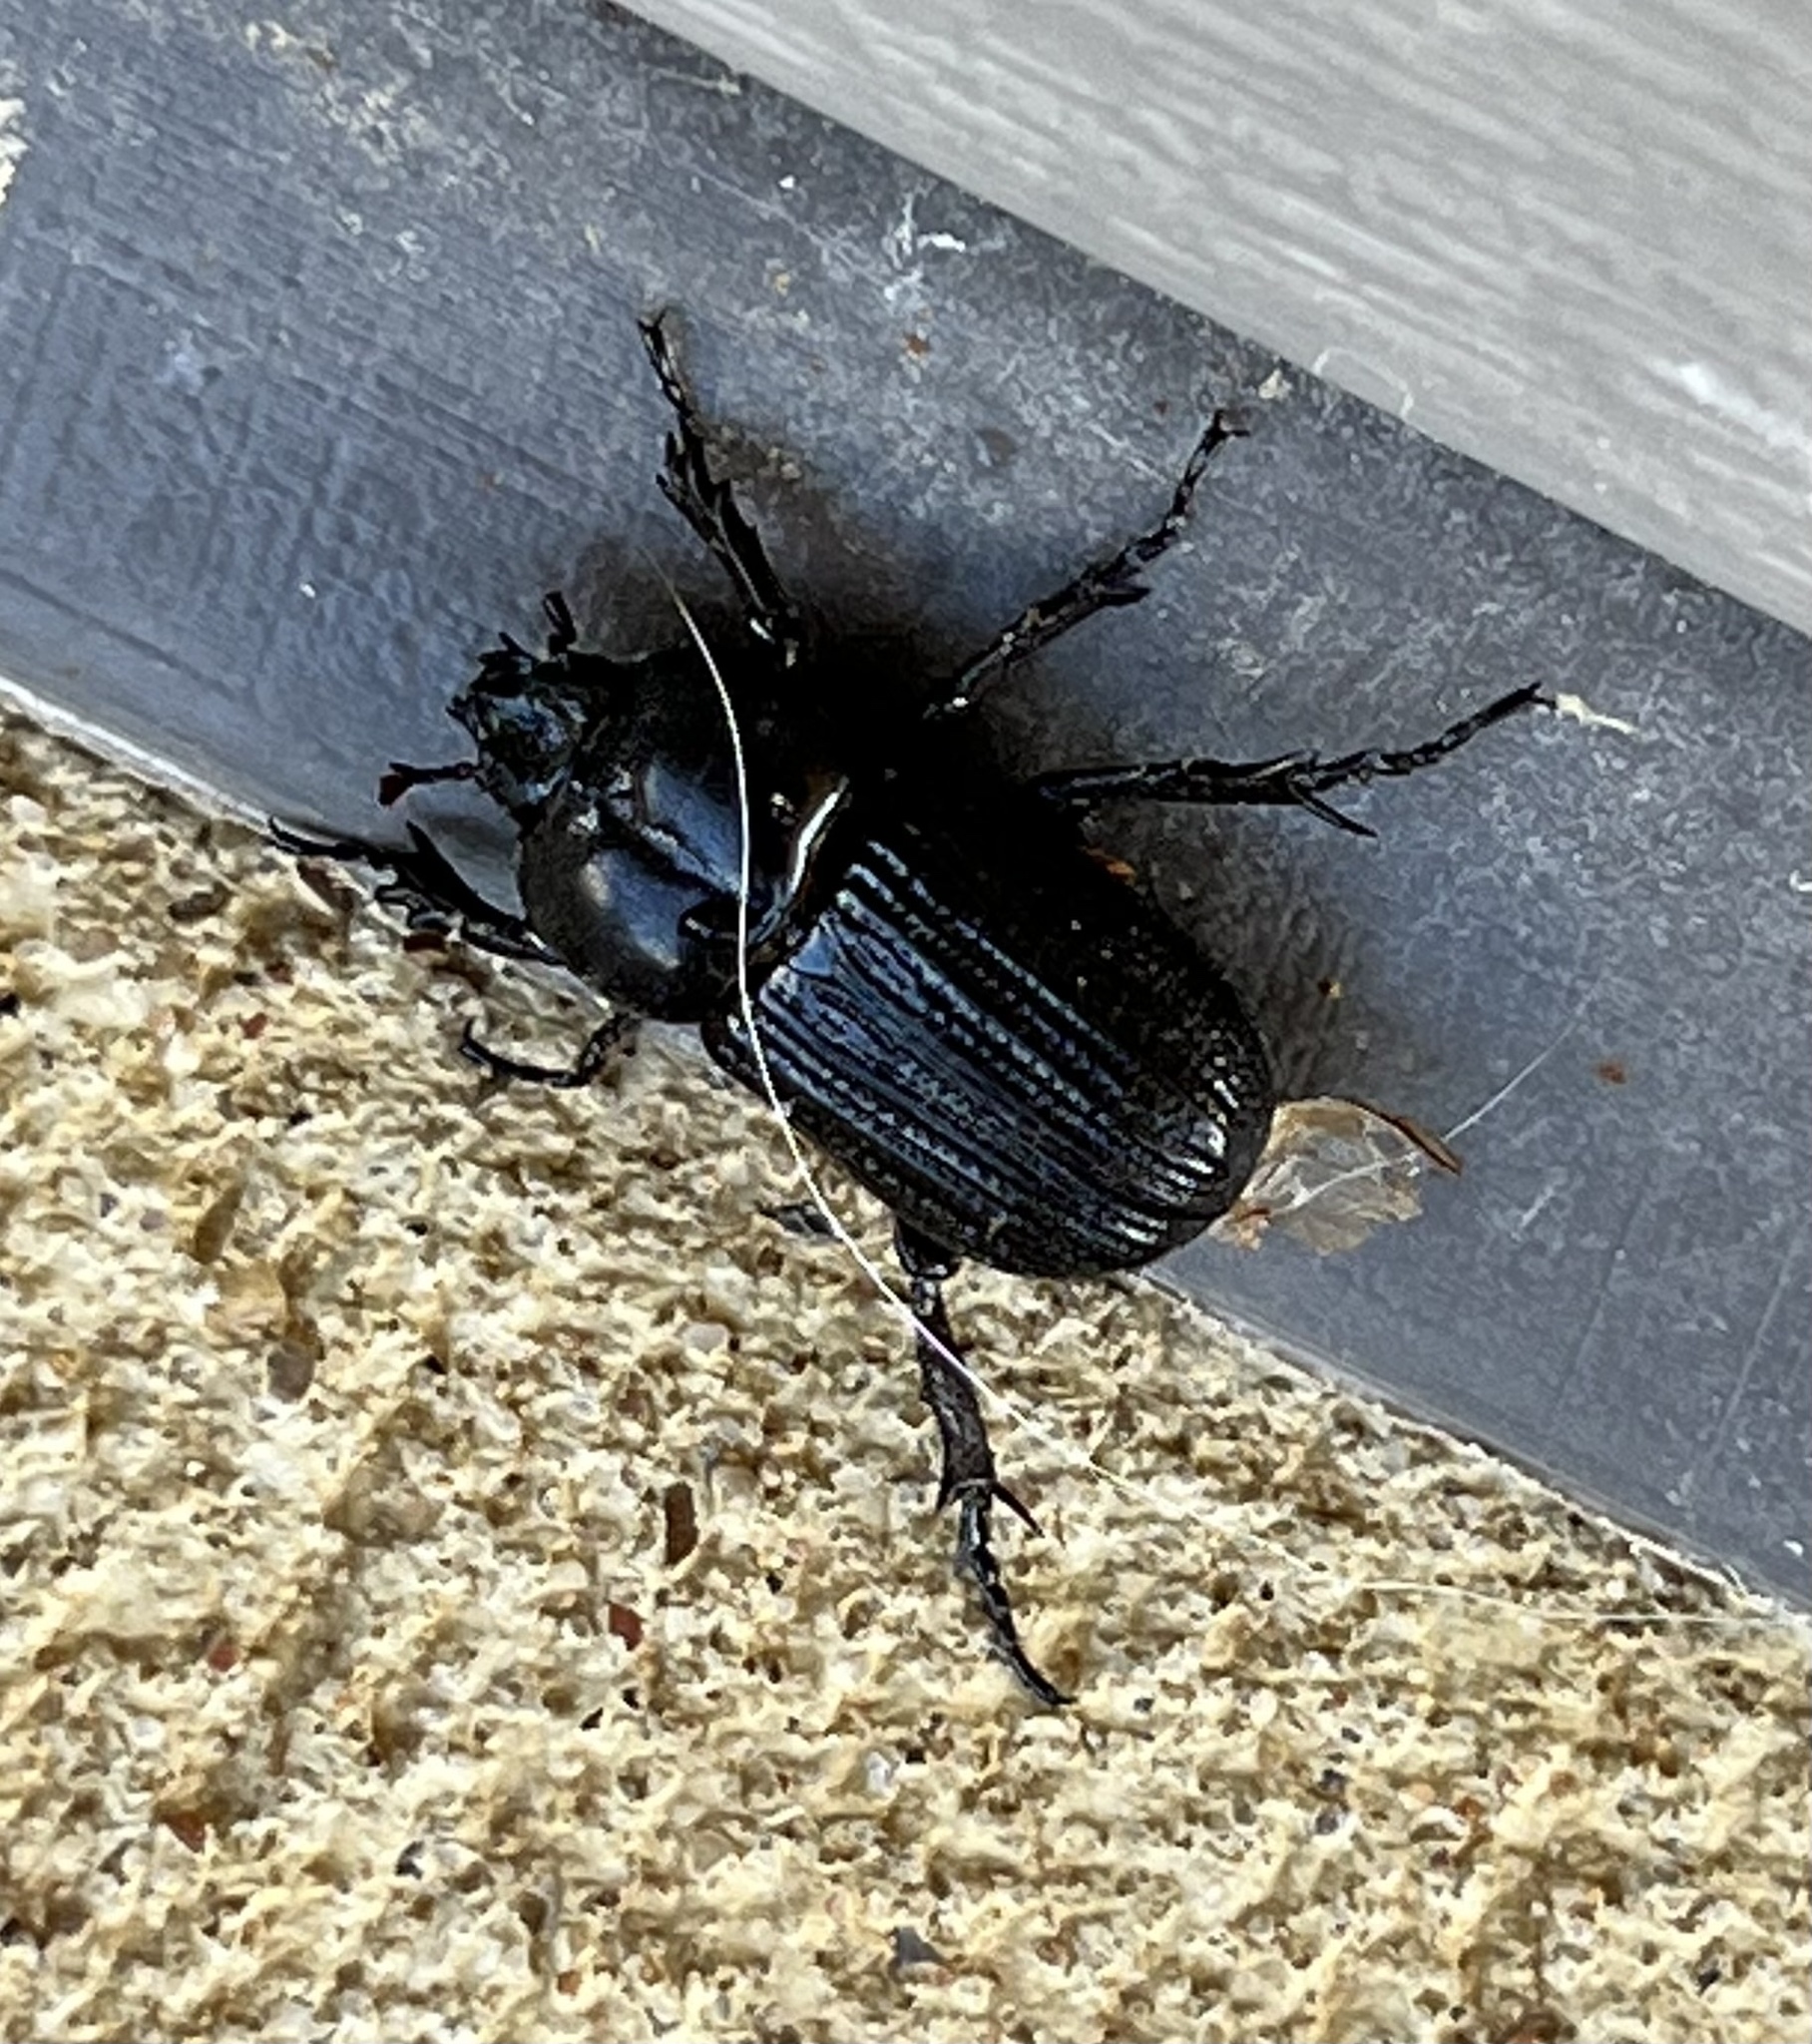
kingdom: Animalia
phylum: Arthropoda
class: Insecta
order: Coleoptera
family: Scarabaeidae
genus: Phileurus
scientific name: Phileurus valgus
